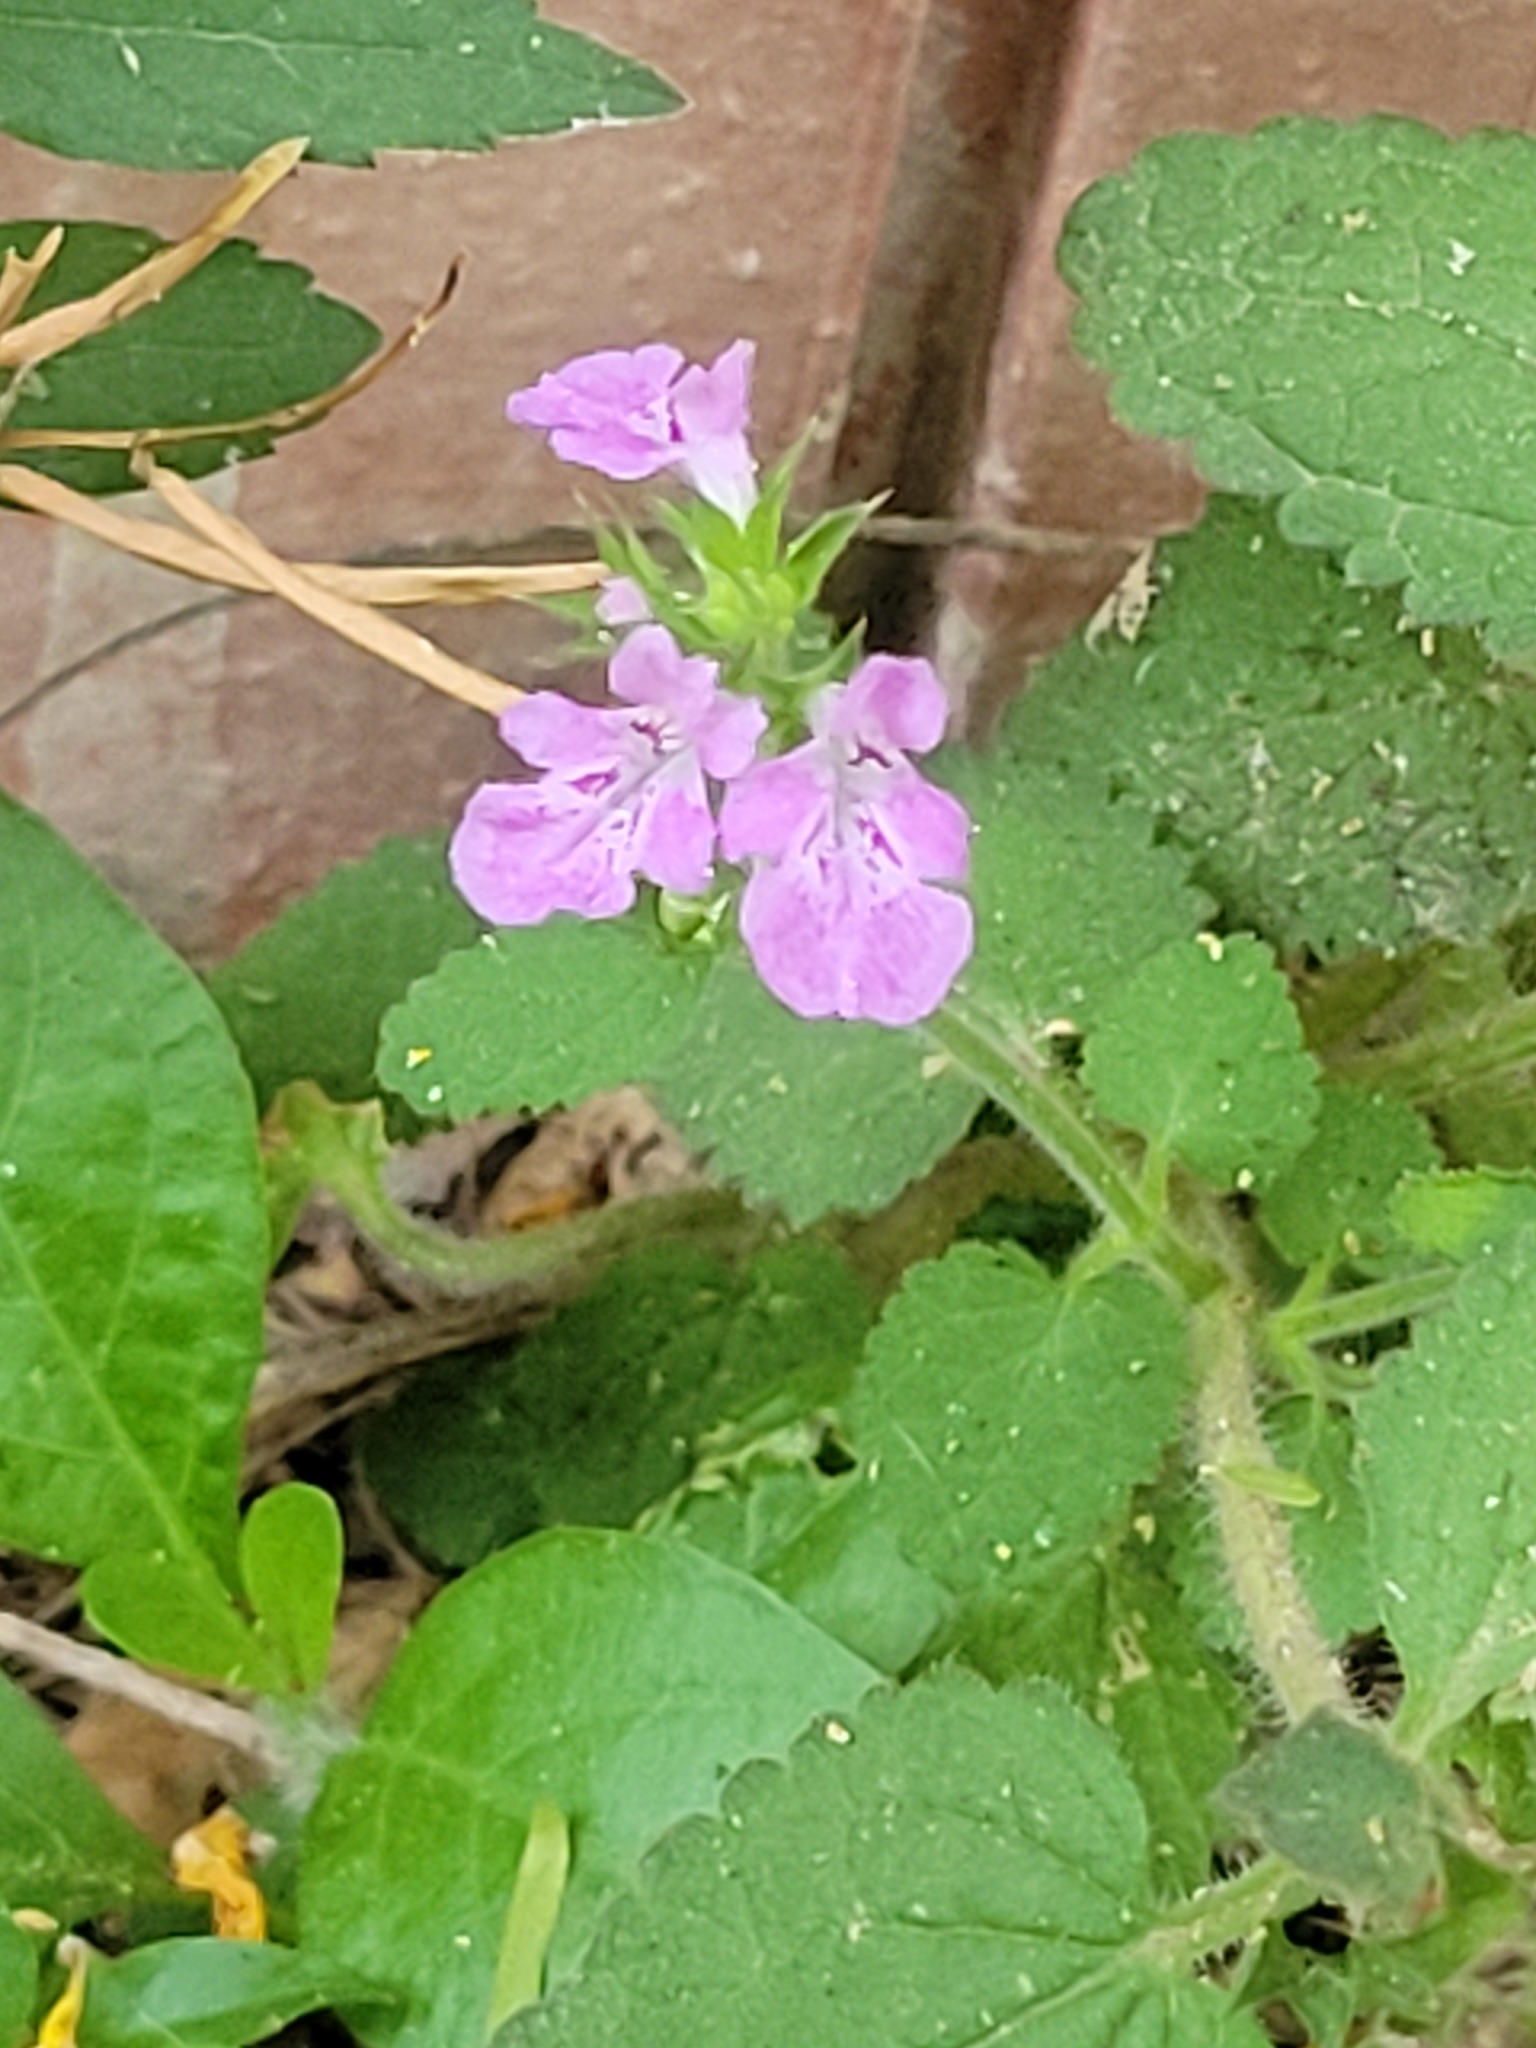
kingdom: Plantae
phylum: Tracheophyta
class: Magnoliopsida
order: Lamiales
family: Lamiaceae
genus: Stachys
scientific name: Stachys drummondii
